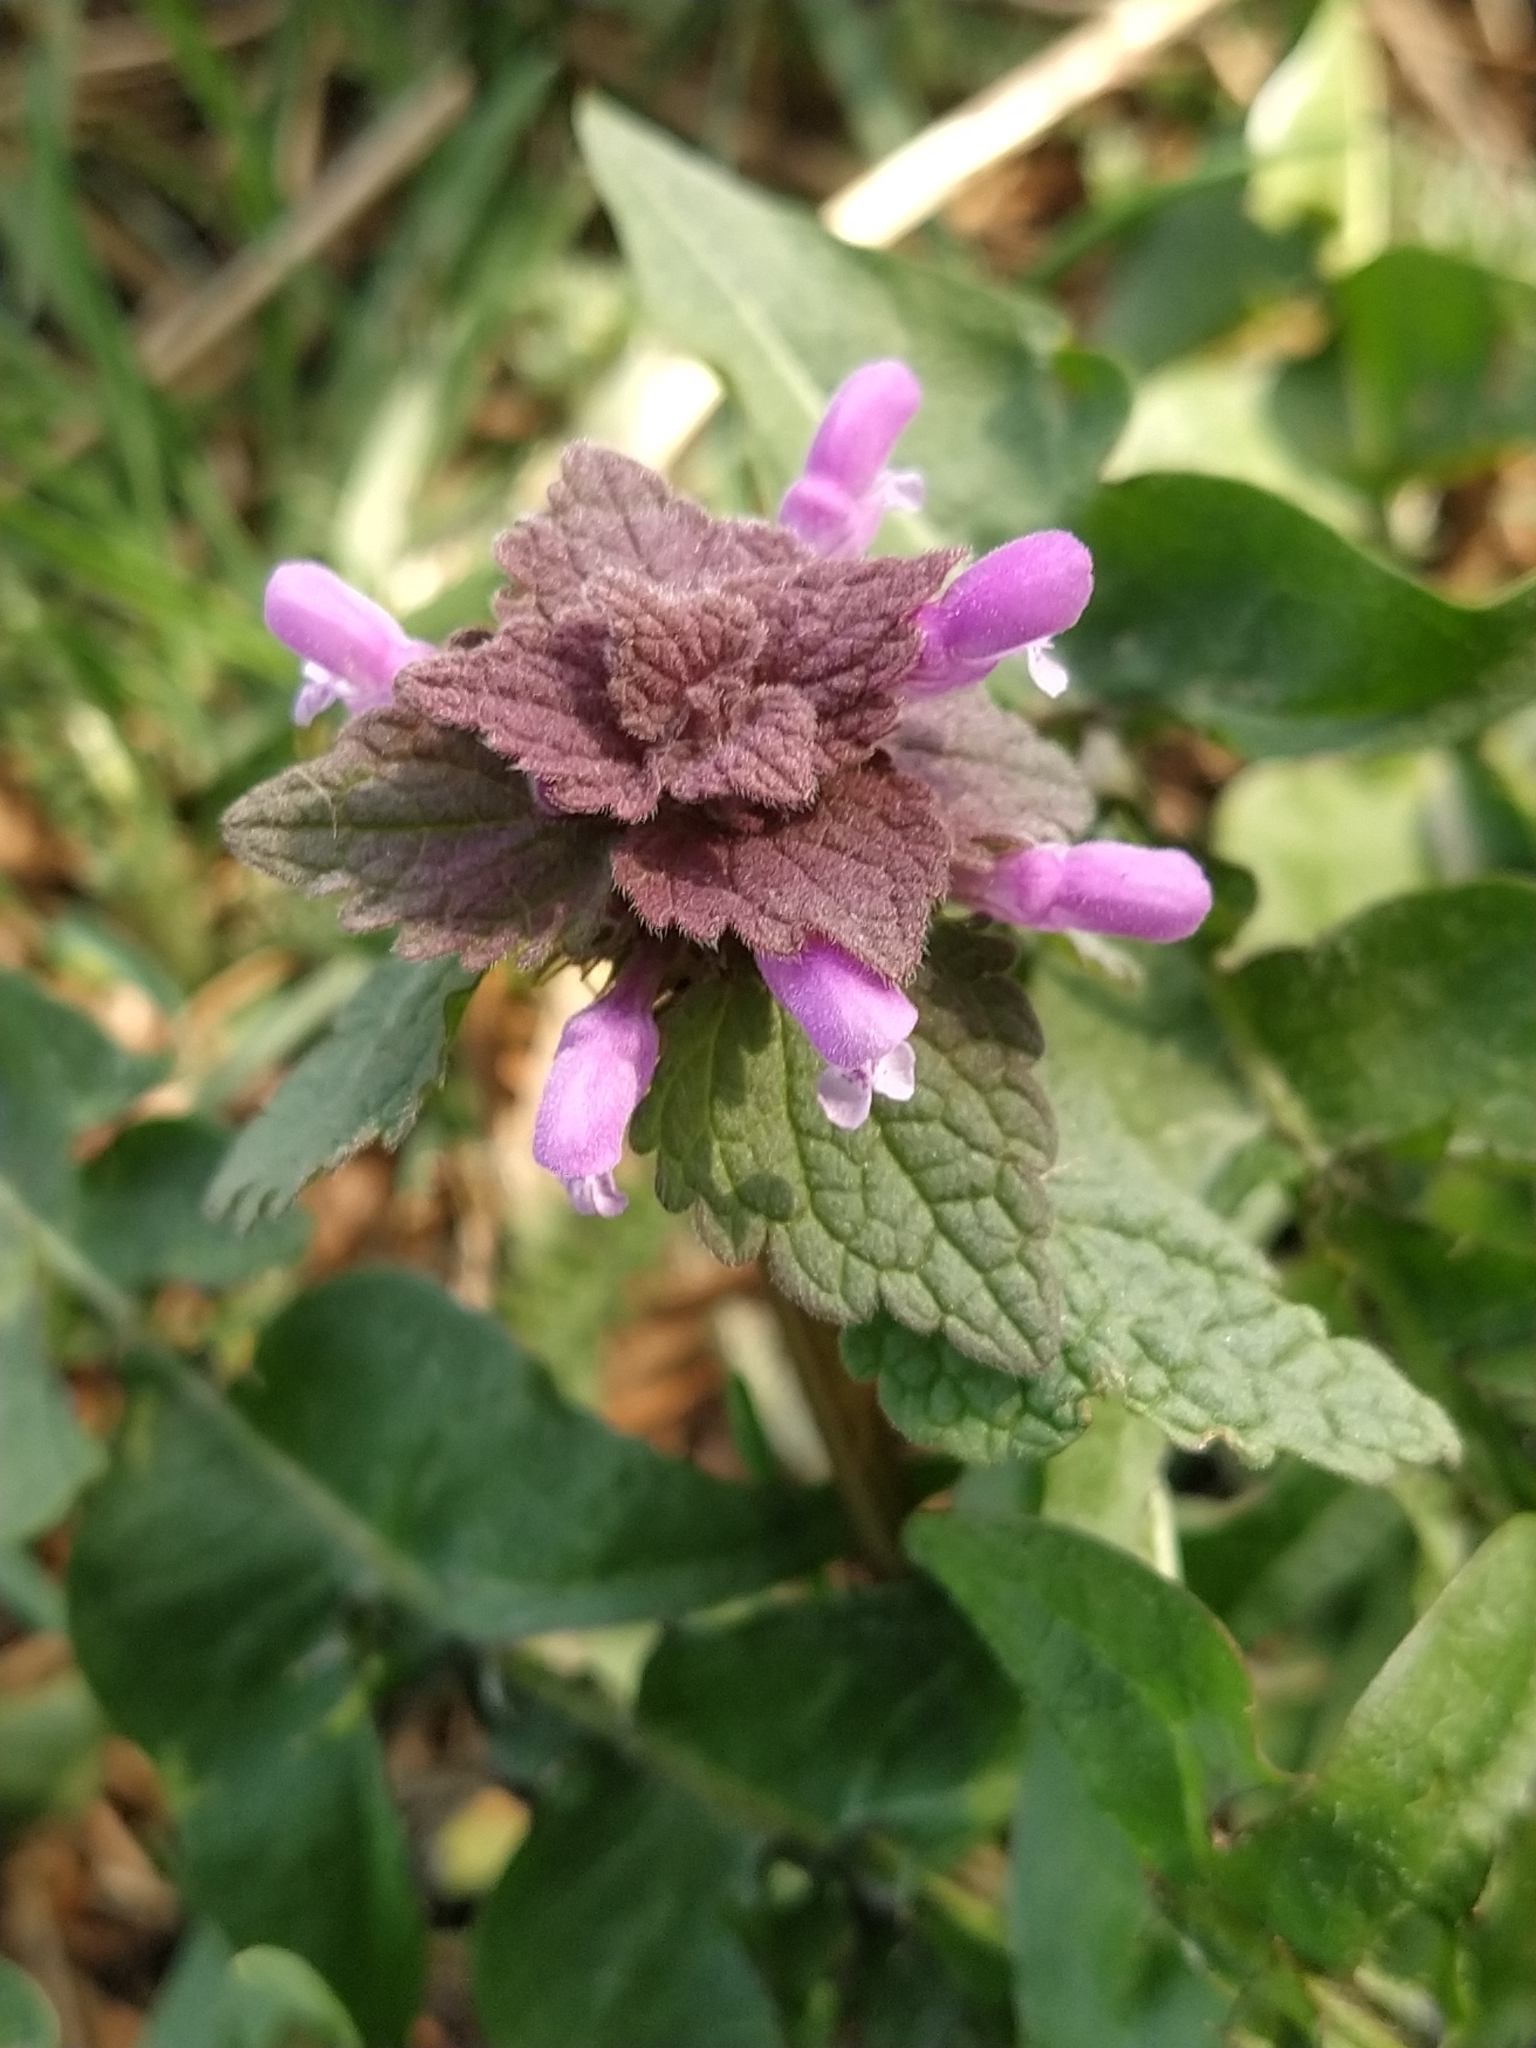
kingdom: Plantae
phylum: Tracheophyta
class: Magnoliopsida
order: Lamiales
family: Lamiaceae
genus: Lamium
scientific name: Lamium purpureum
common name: Red dead-nettle
